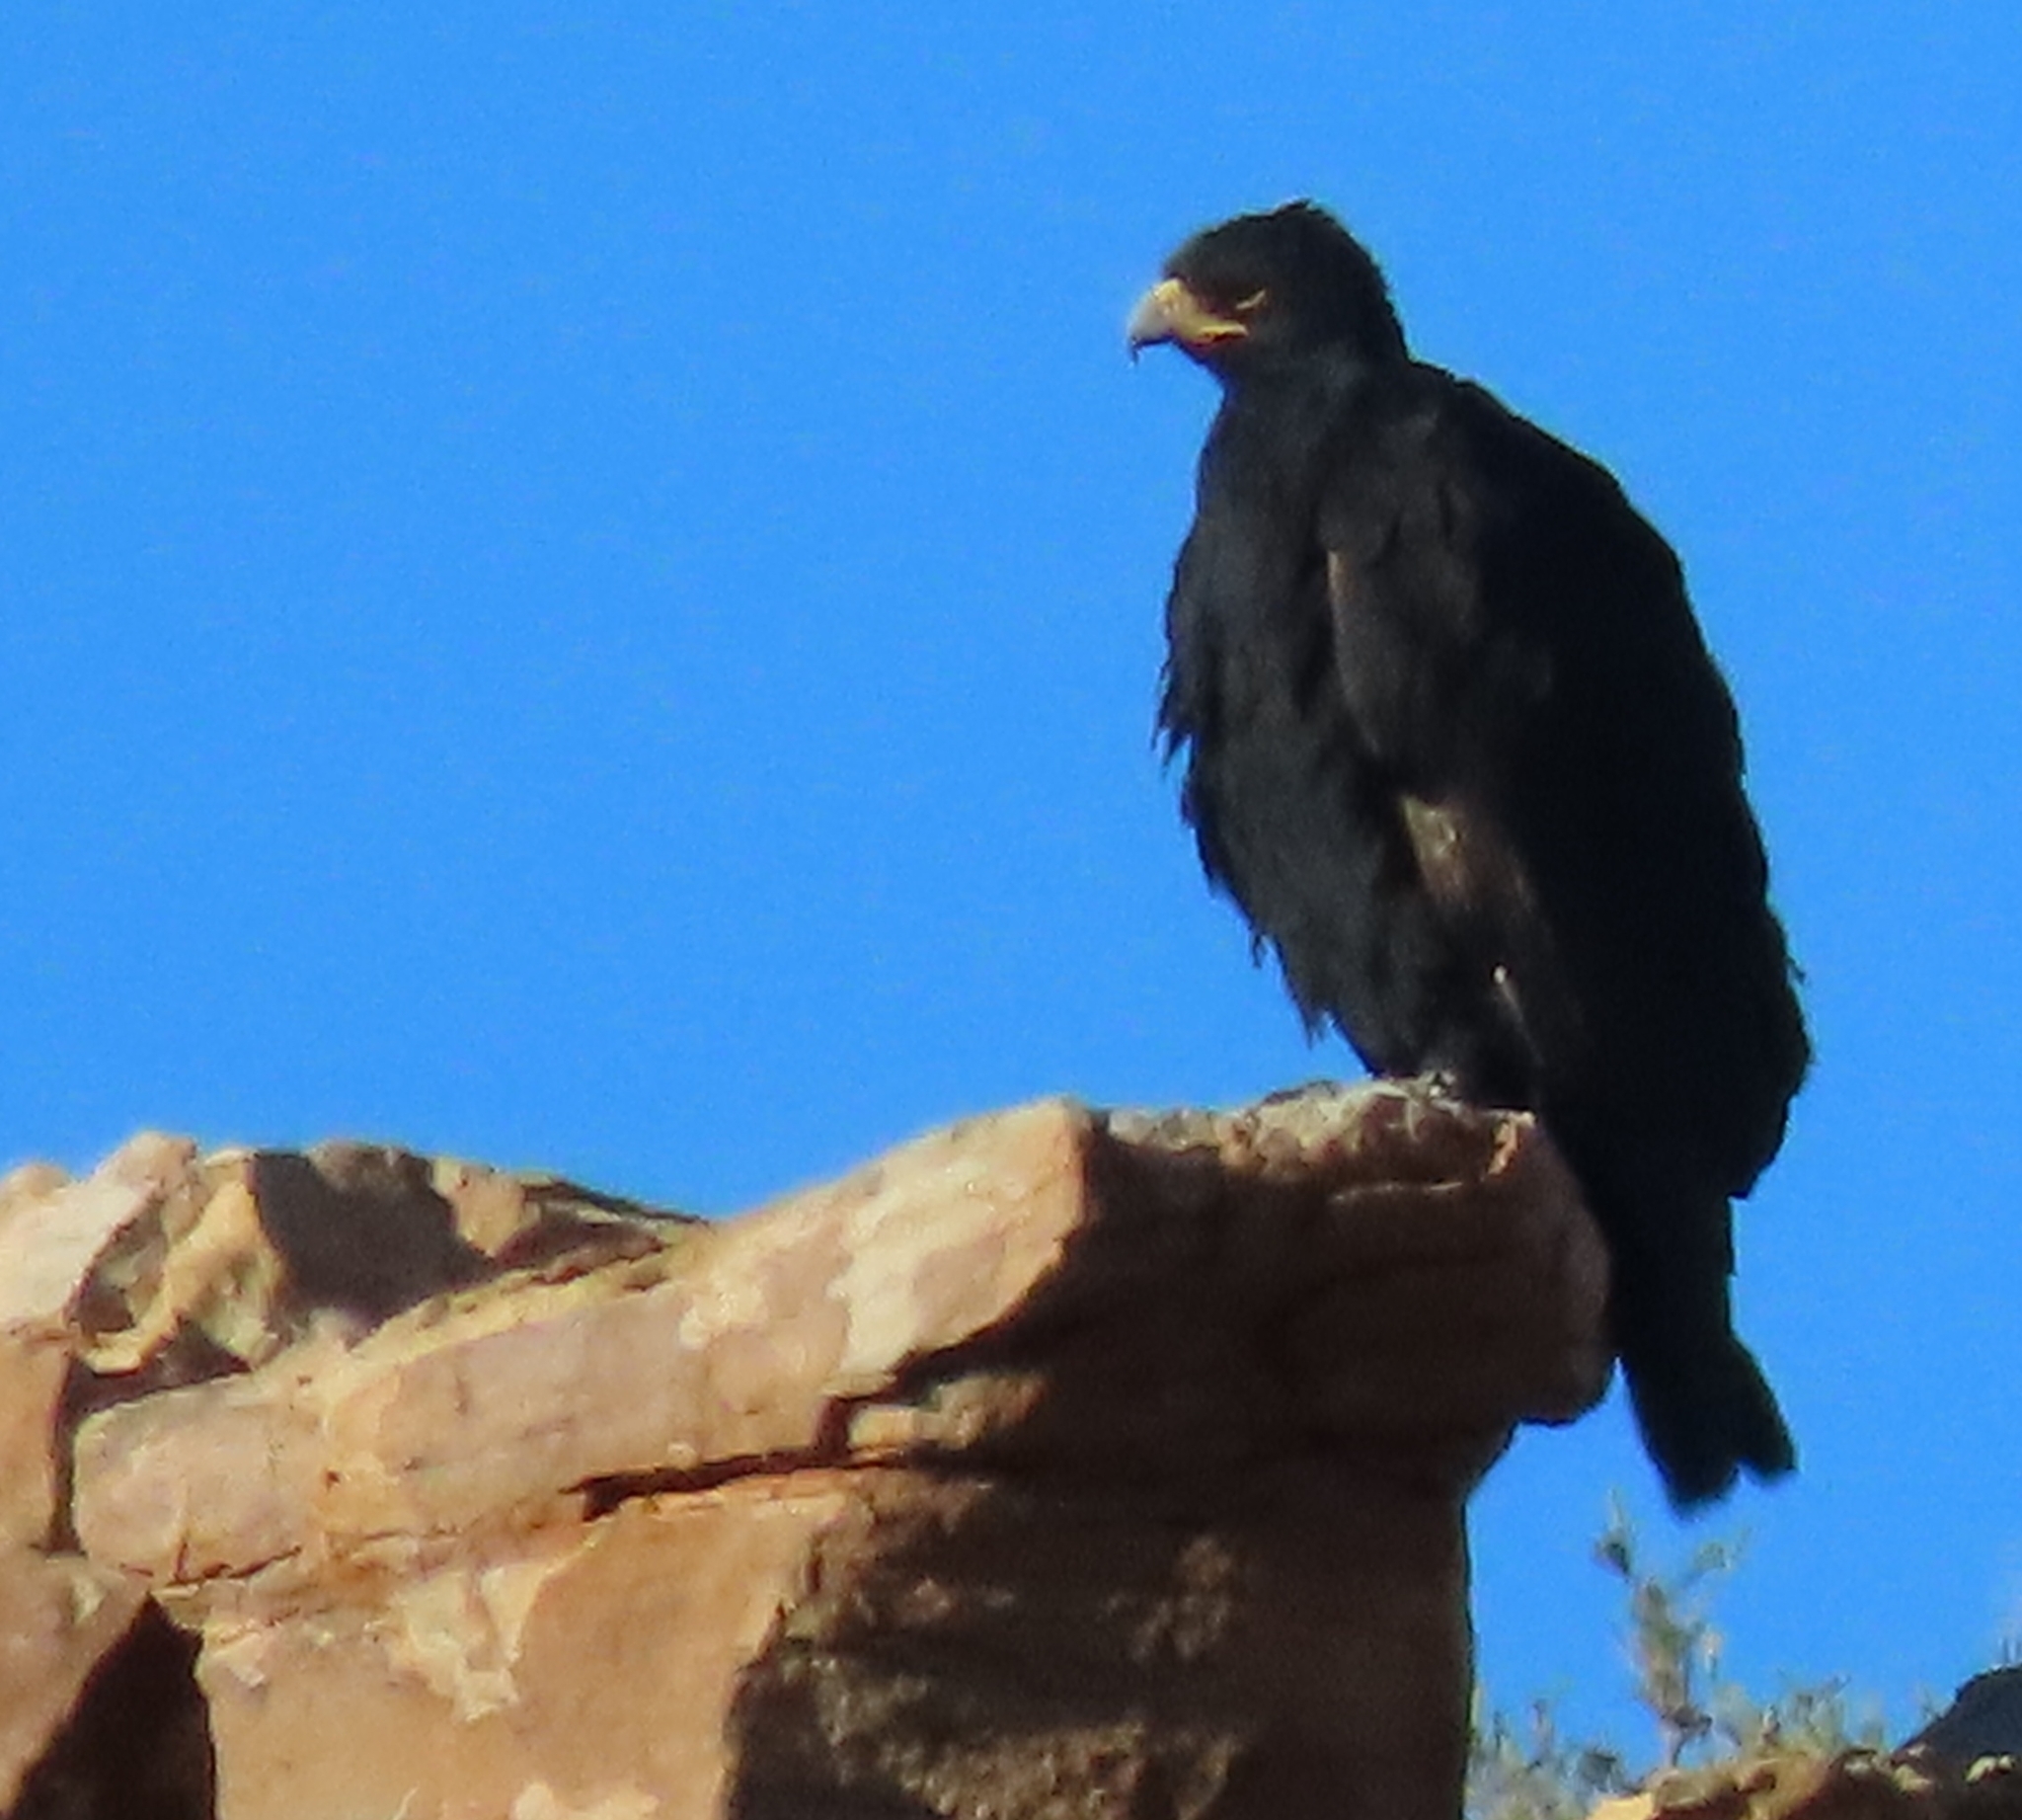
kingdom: Animalia
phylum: Chordata
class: Aves
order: Accipitriformes
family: Accipitridae
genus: Aquila
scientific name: Aquila verreauxii
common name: Verreaux's eagle
